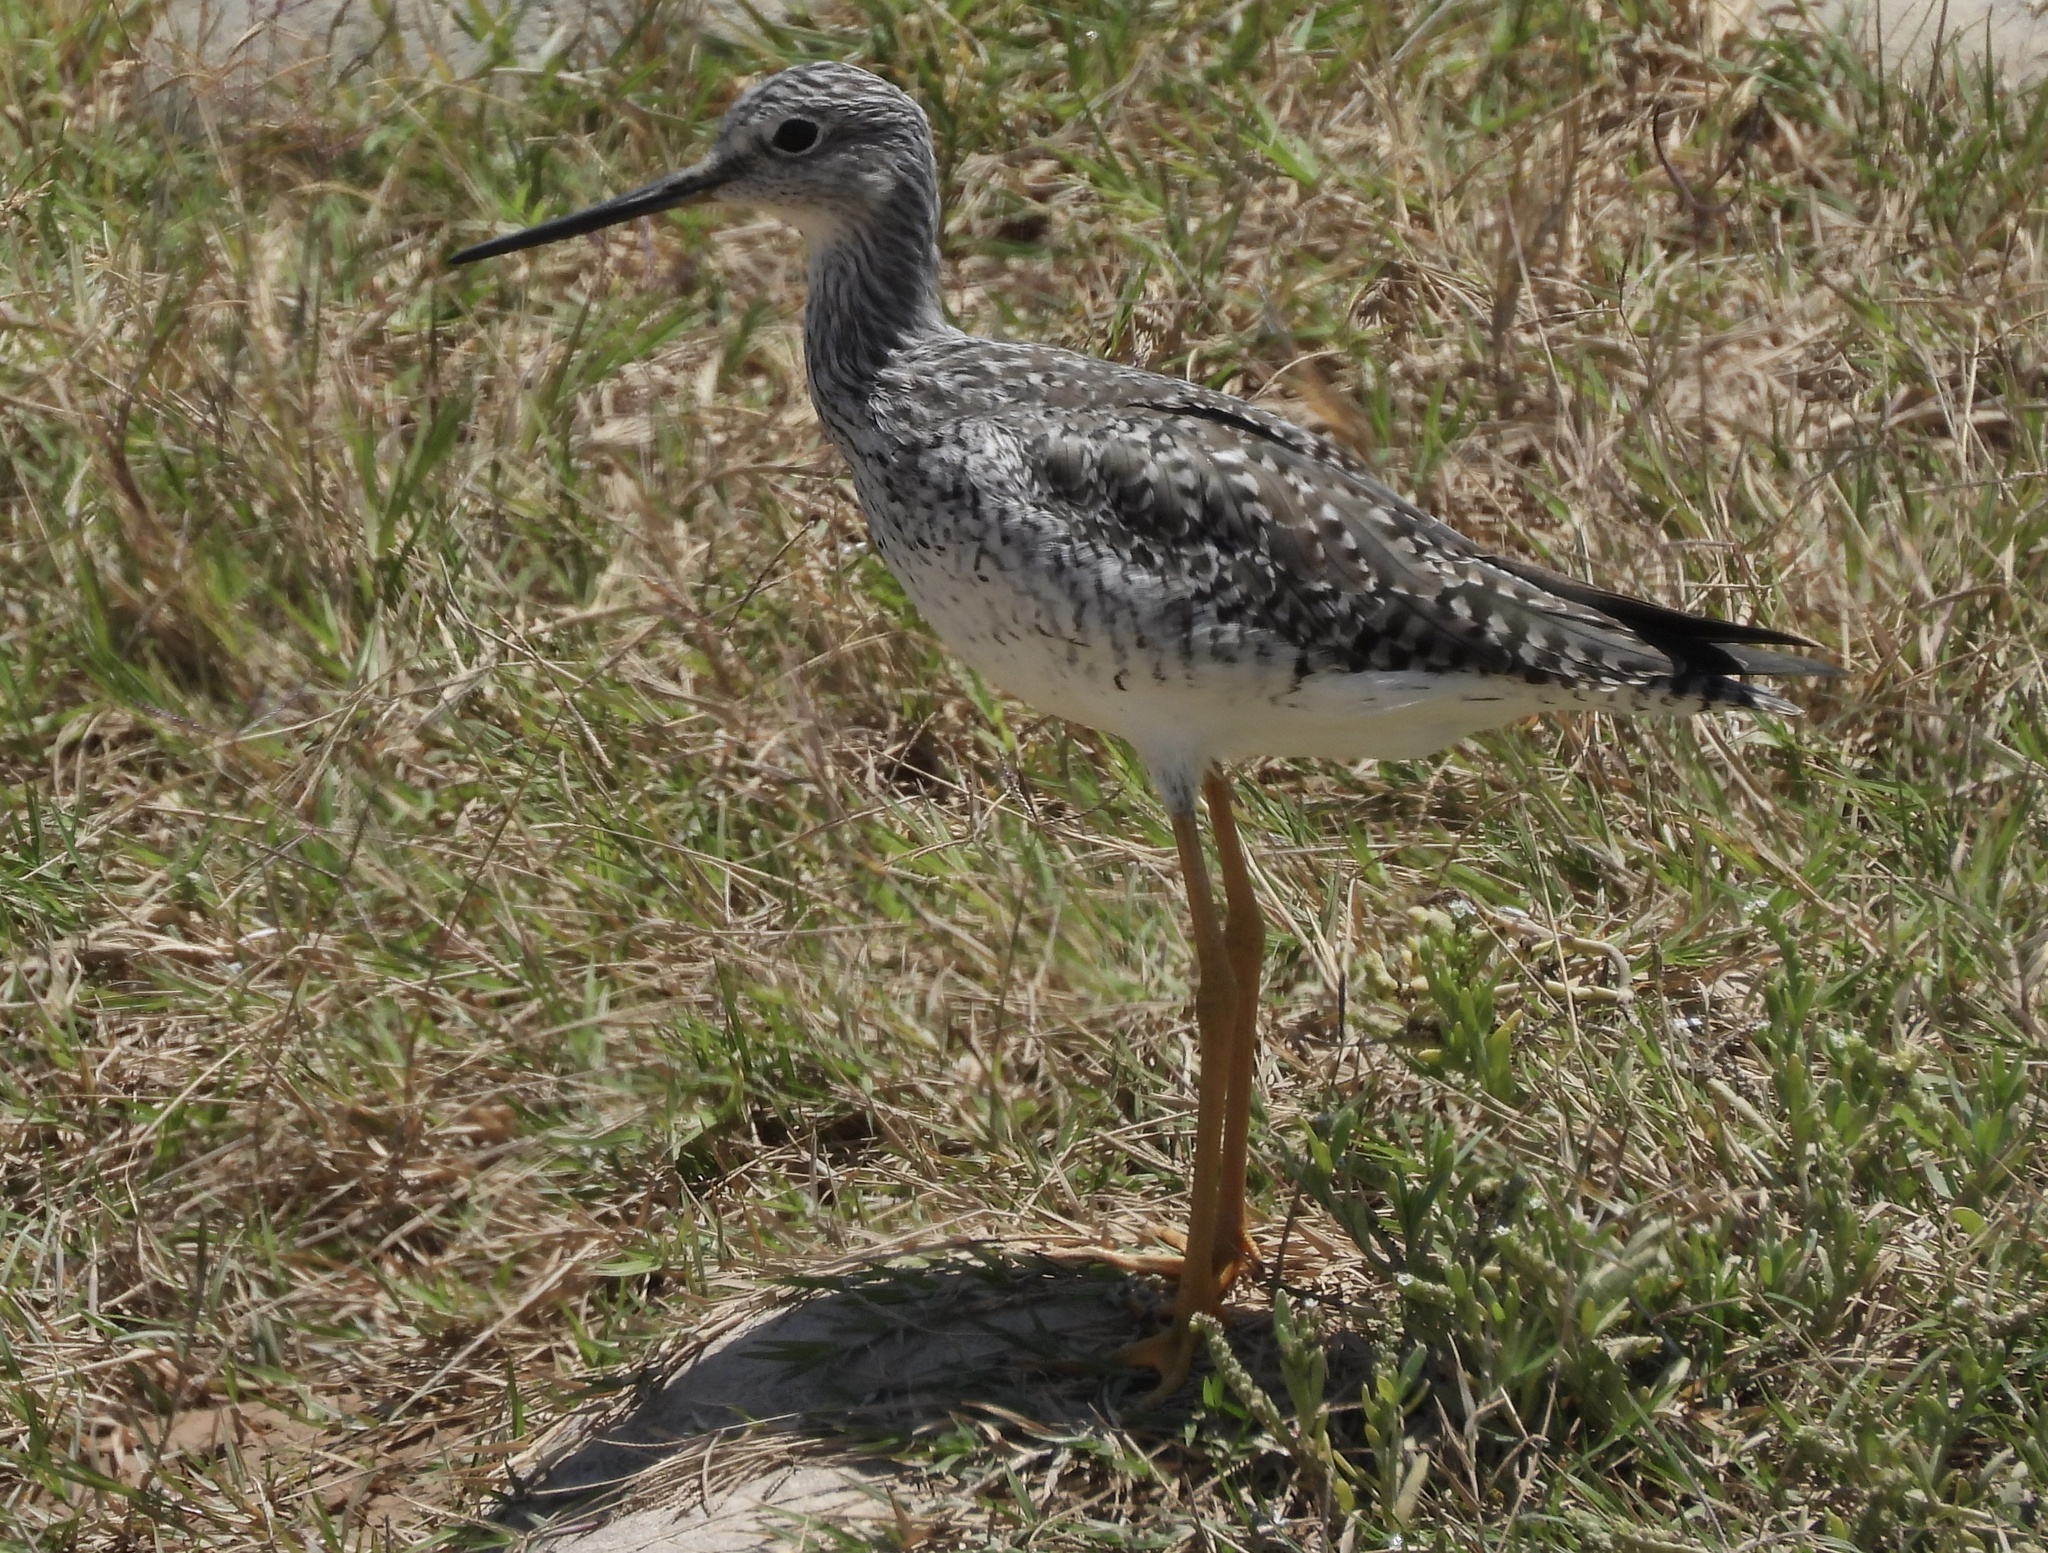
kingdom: Animalia
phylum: Chordata
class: Aves
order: Charadriiformes
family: Scolopacidae
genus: Tringa
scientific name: Tringa melanoleuca
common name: Greater yellowlegs
